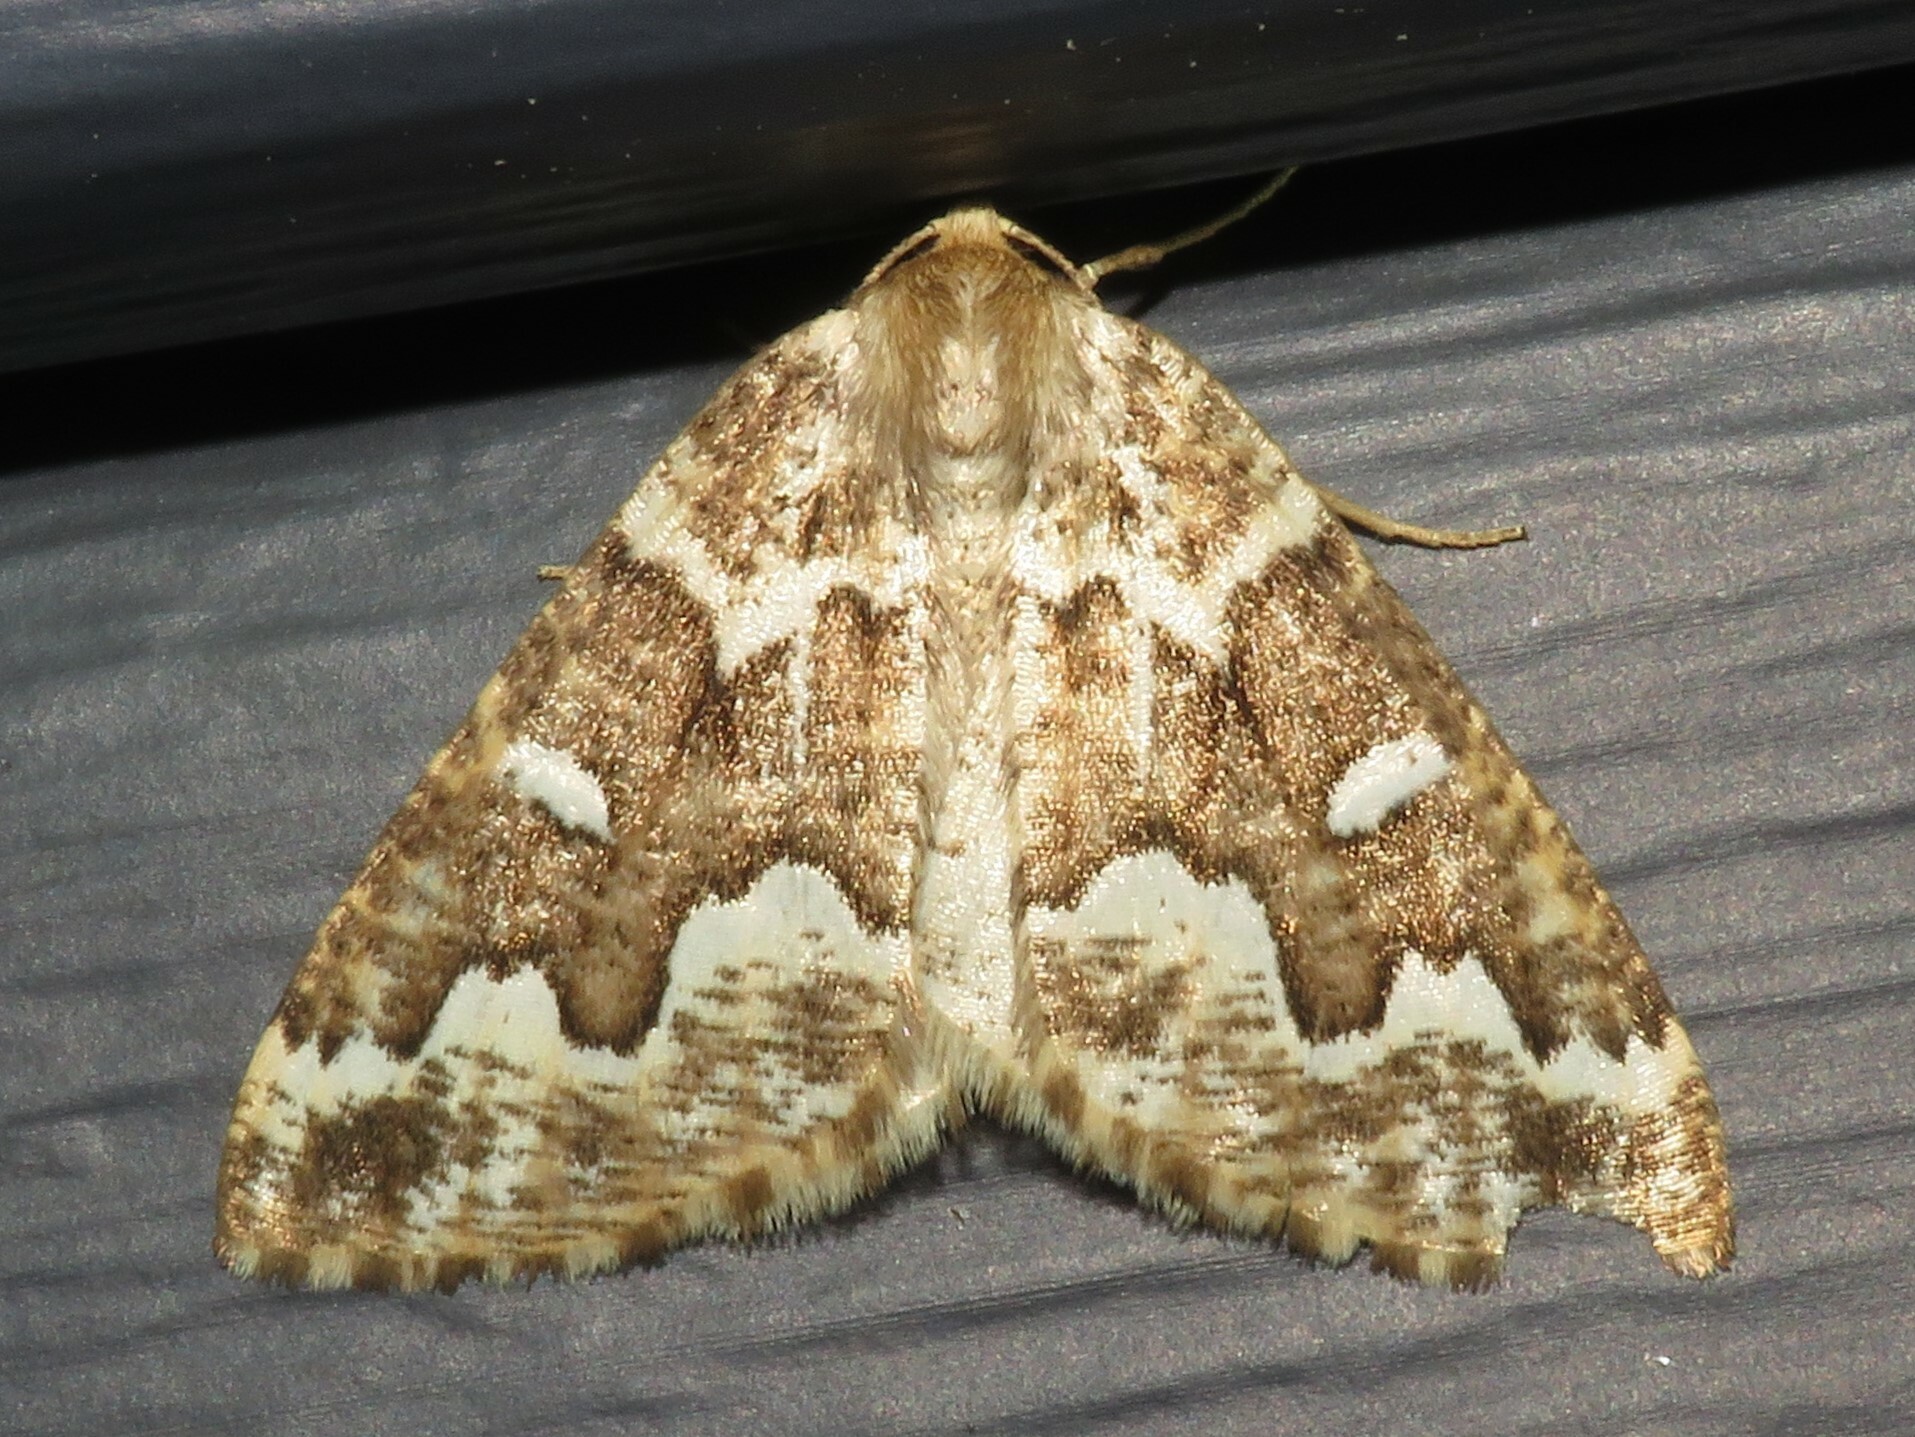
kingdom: Animalia
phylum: Arthropoda
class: Insecta
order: Lepidoptera
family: Geometridae
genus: Caripeta
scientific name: Caripeta divisata
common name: Gray spruce looper
